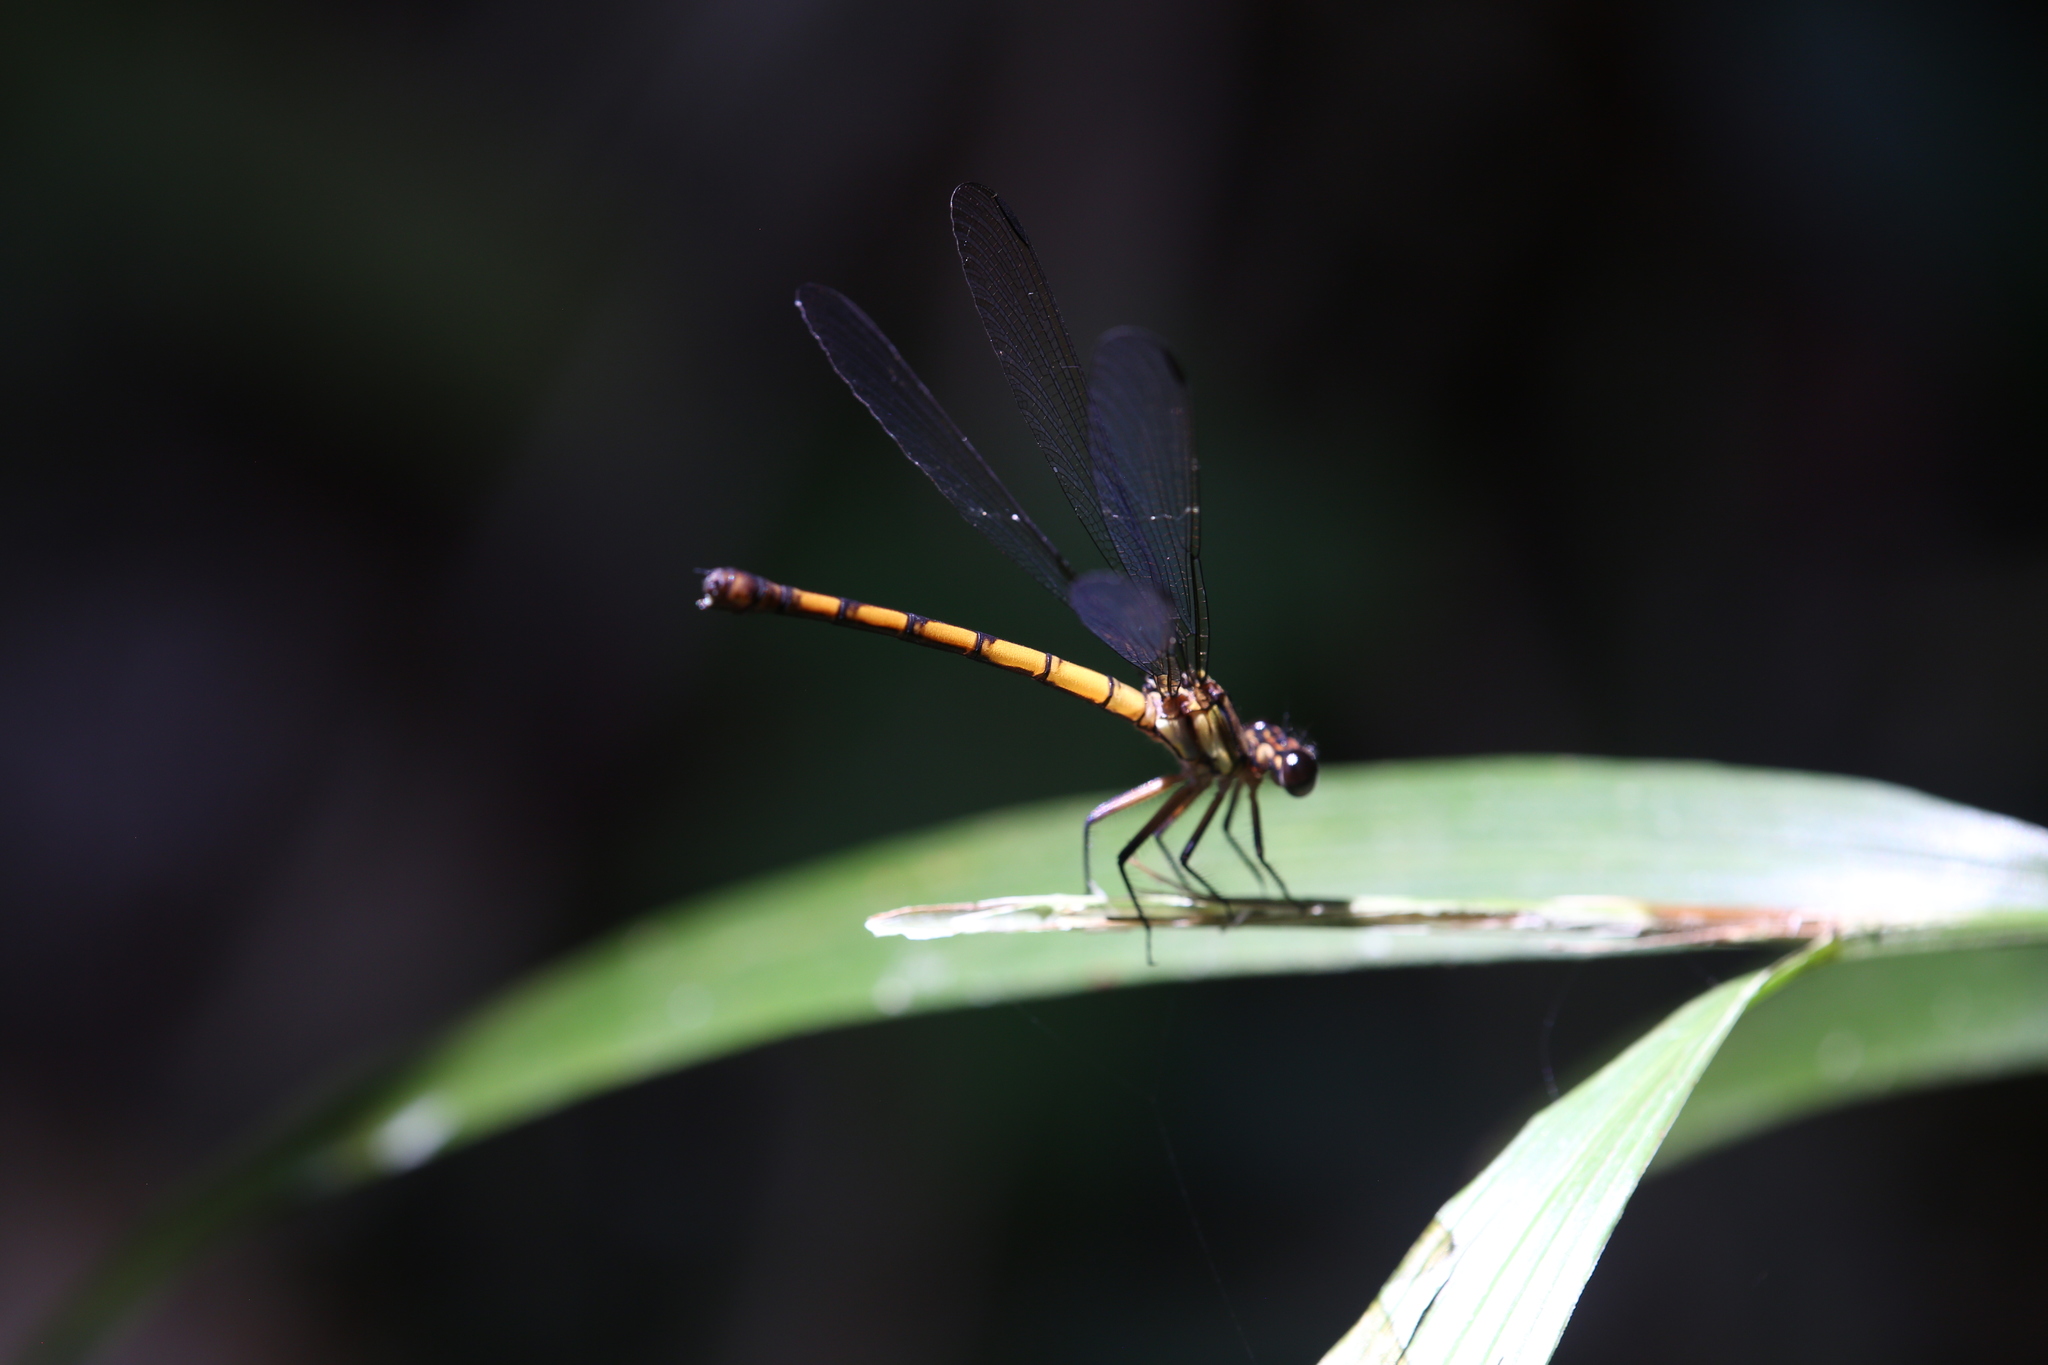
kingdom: Animalia
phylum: Arthropoda
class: Insecta
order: Odonata
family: Lestoideidae
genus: Diphlebia
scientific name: Diphlebia euphoeoides
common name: Tropical rockmaster
